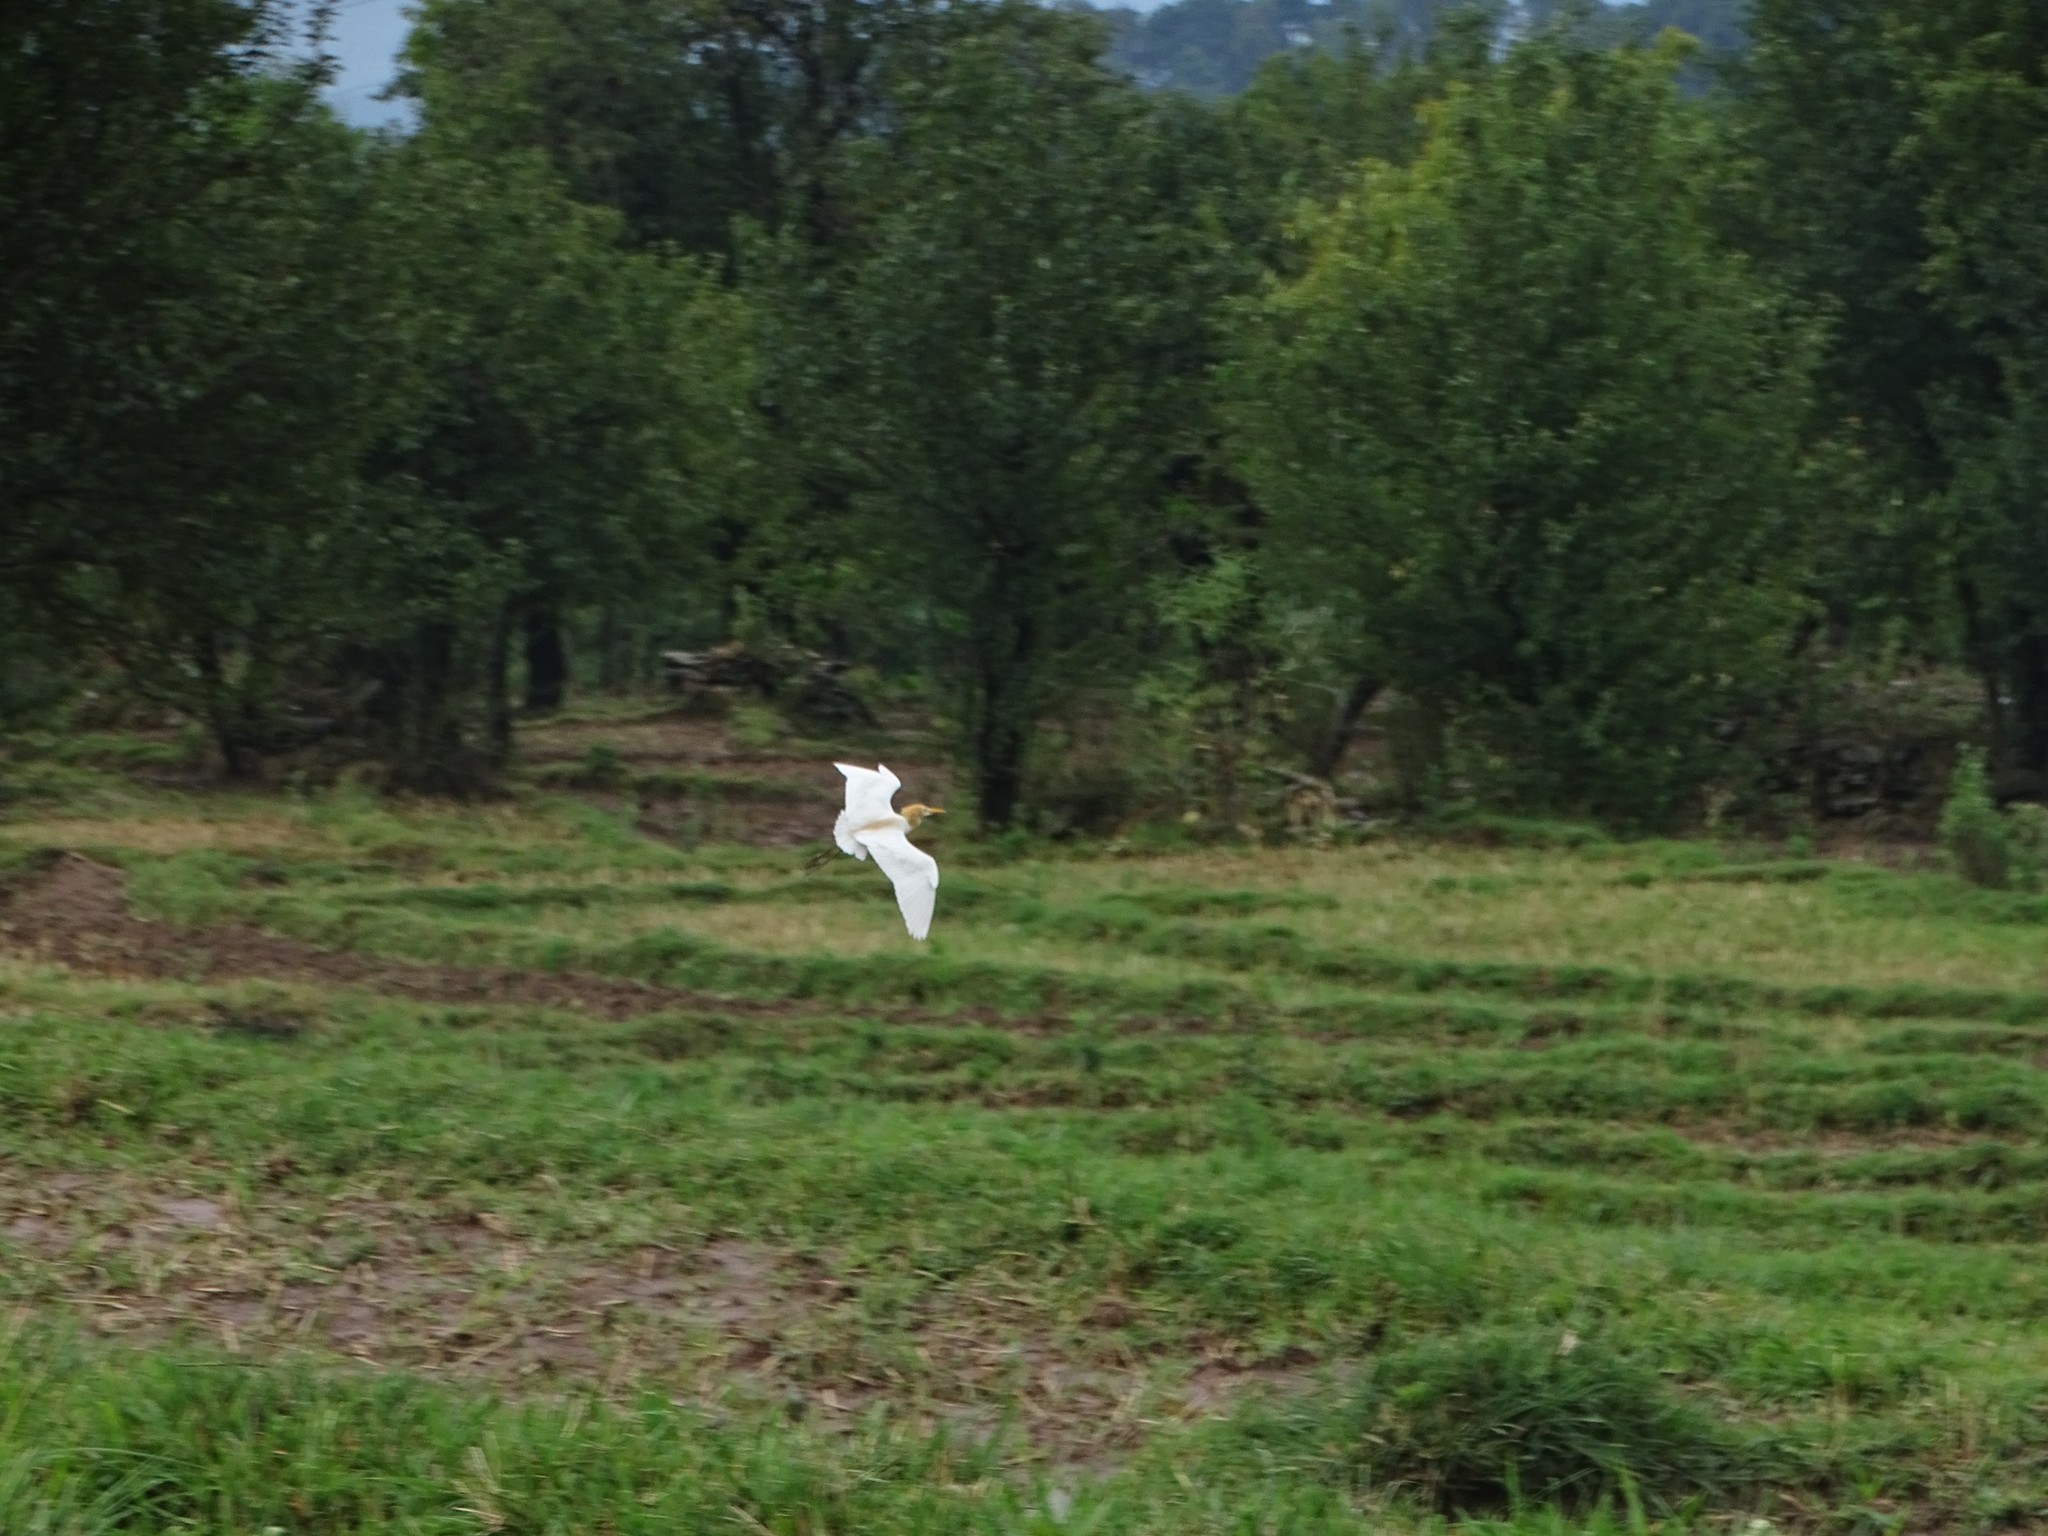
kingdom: Animalia
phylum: Chordata
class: Aves
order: Pelecaniformes
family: Ardeidae
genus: Bubulcus
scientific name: Bubulcus coromandus
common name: Eastern cattle egret
